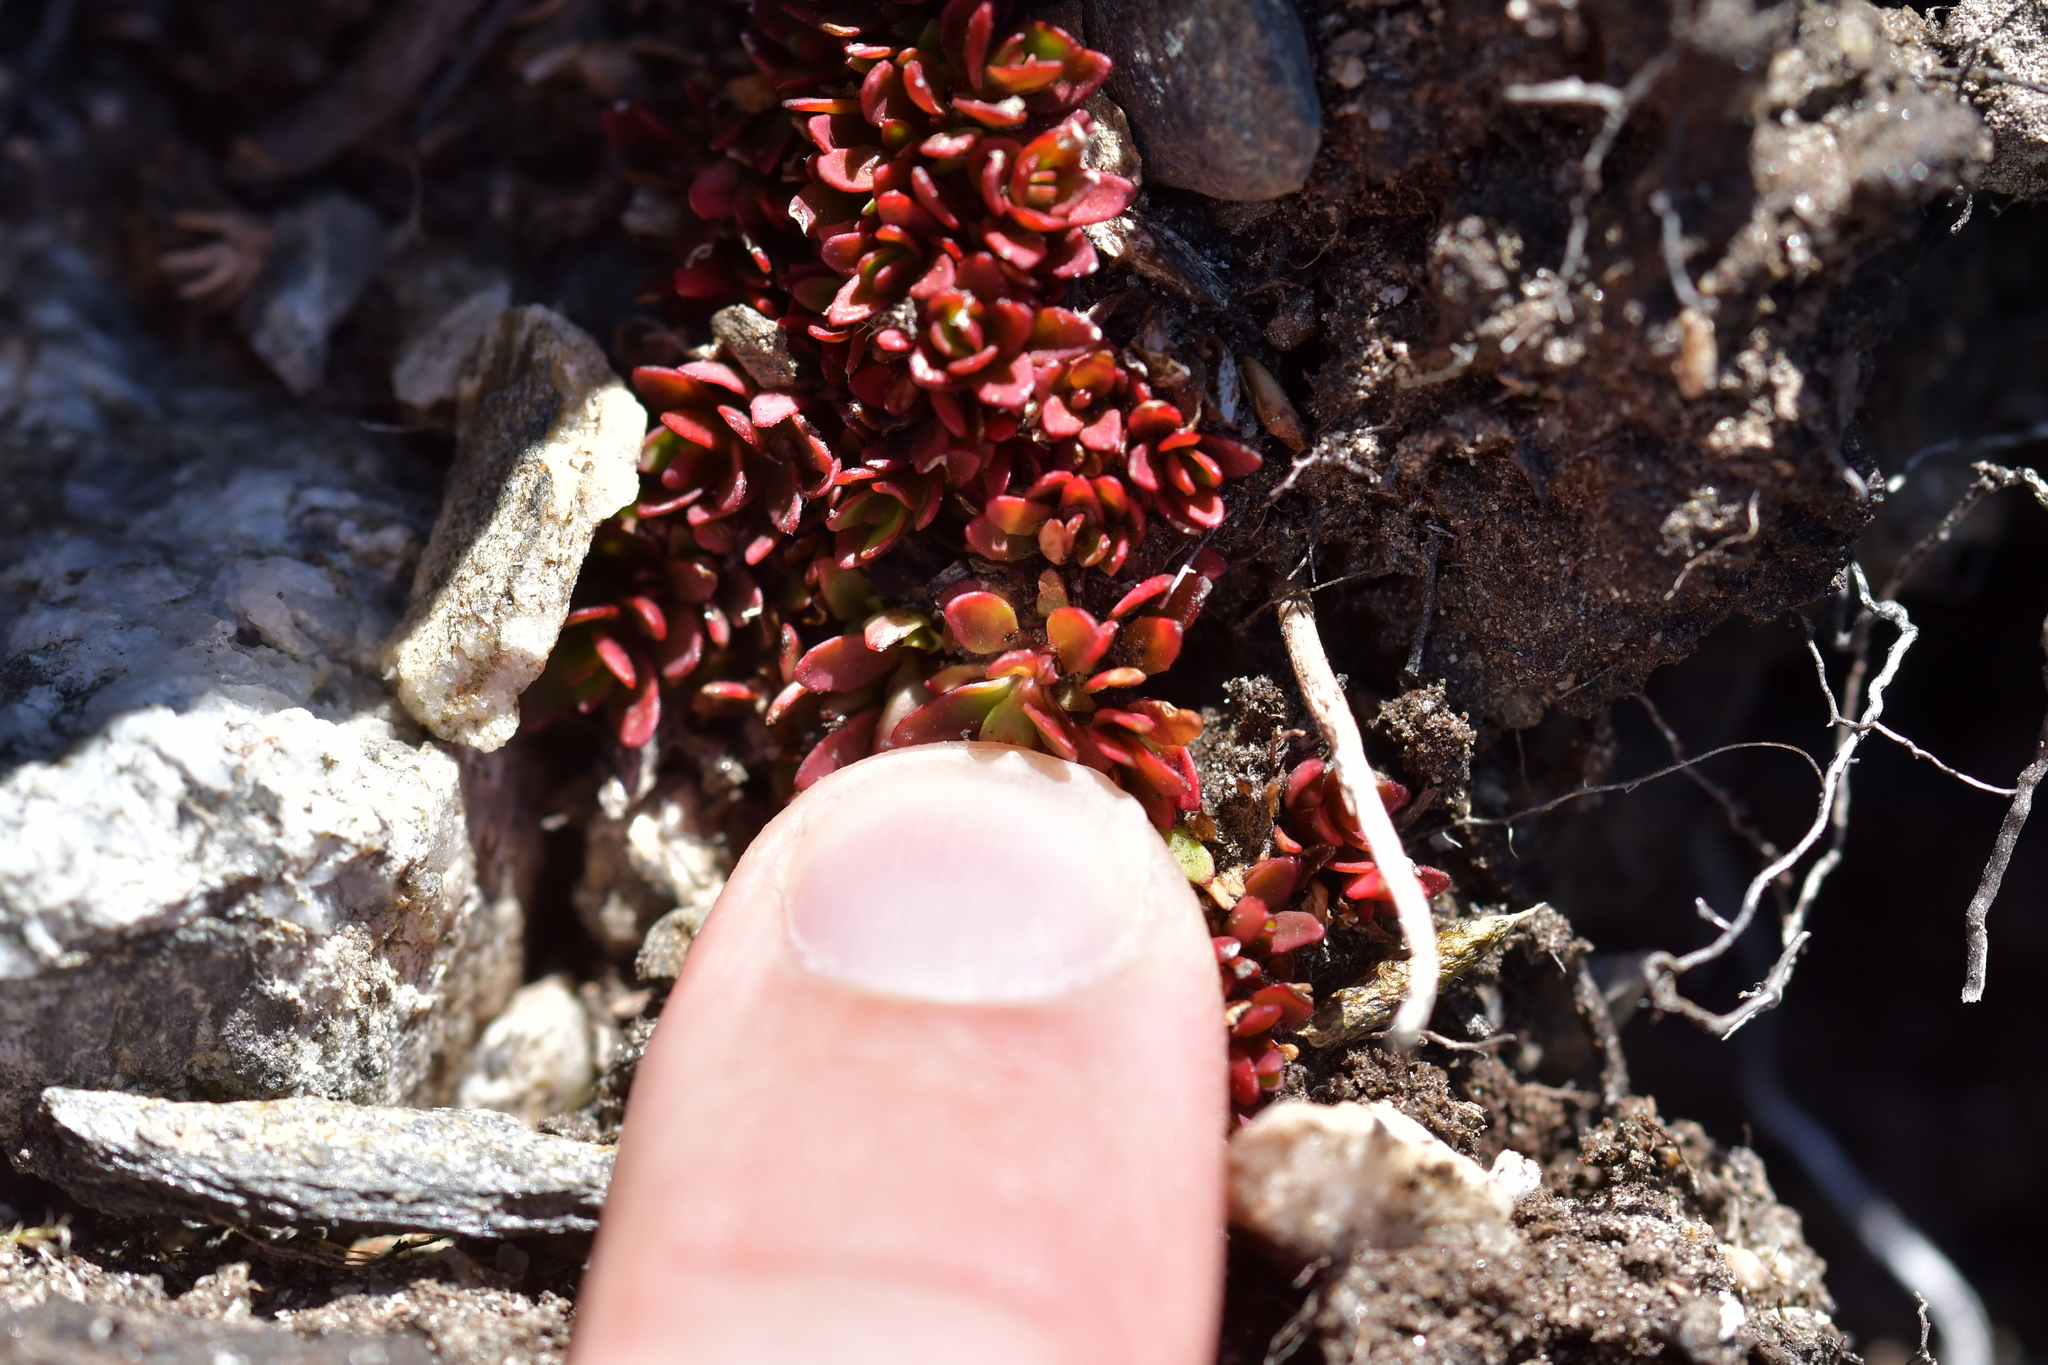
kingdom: Plantae
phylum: Tracheophyta
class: Magnoliopsida
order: Myrtales
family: Onagraceae
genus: Epilobium
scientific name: Epilobium tasmanicum
